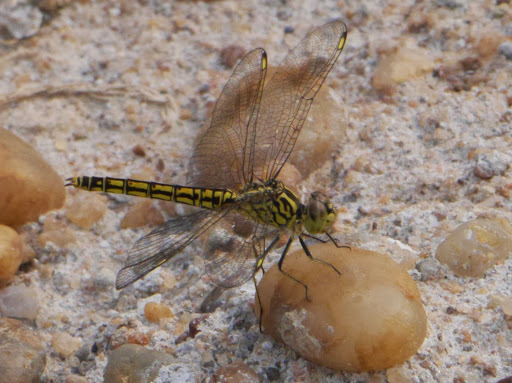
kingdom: Animalia
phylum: Arthropoda
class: Insecta
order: Odonata
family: Libellulidae
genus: Brachythemis
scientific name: Brachythemis leucosticta
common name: Banded groundling
